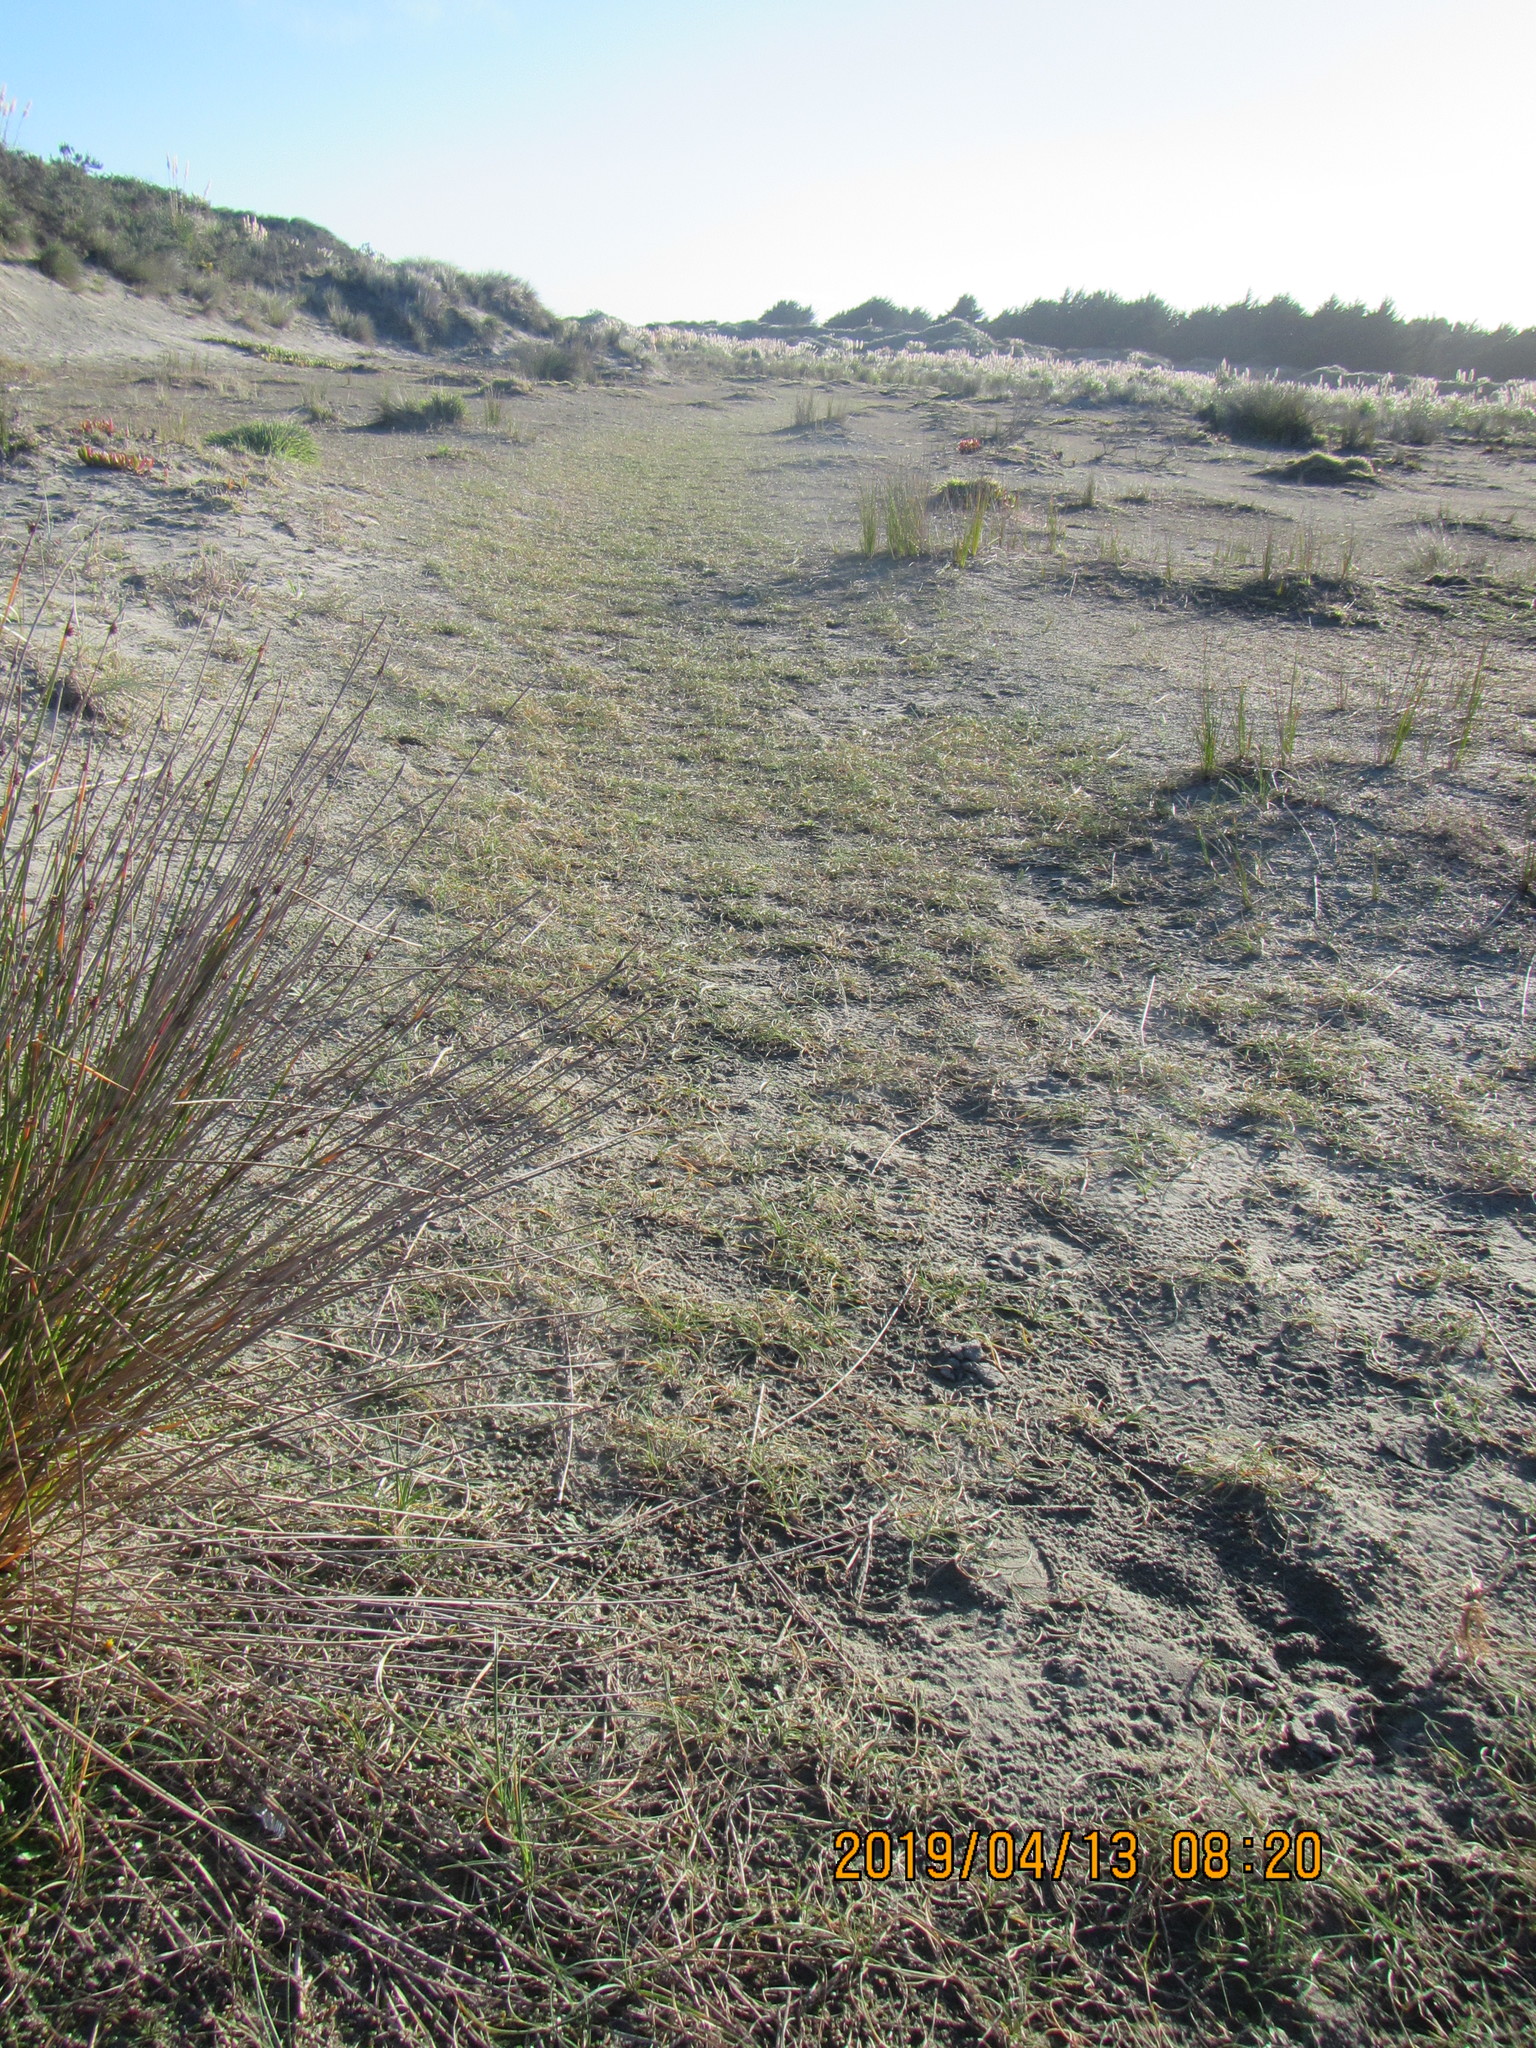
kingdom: Plantae
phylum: Tracheophyta
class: Liliopsida
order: Poales
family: Cyperaceae
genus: Carex
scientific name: Carex pumila
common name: Dwarf sedge
